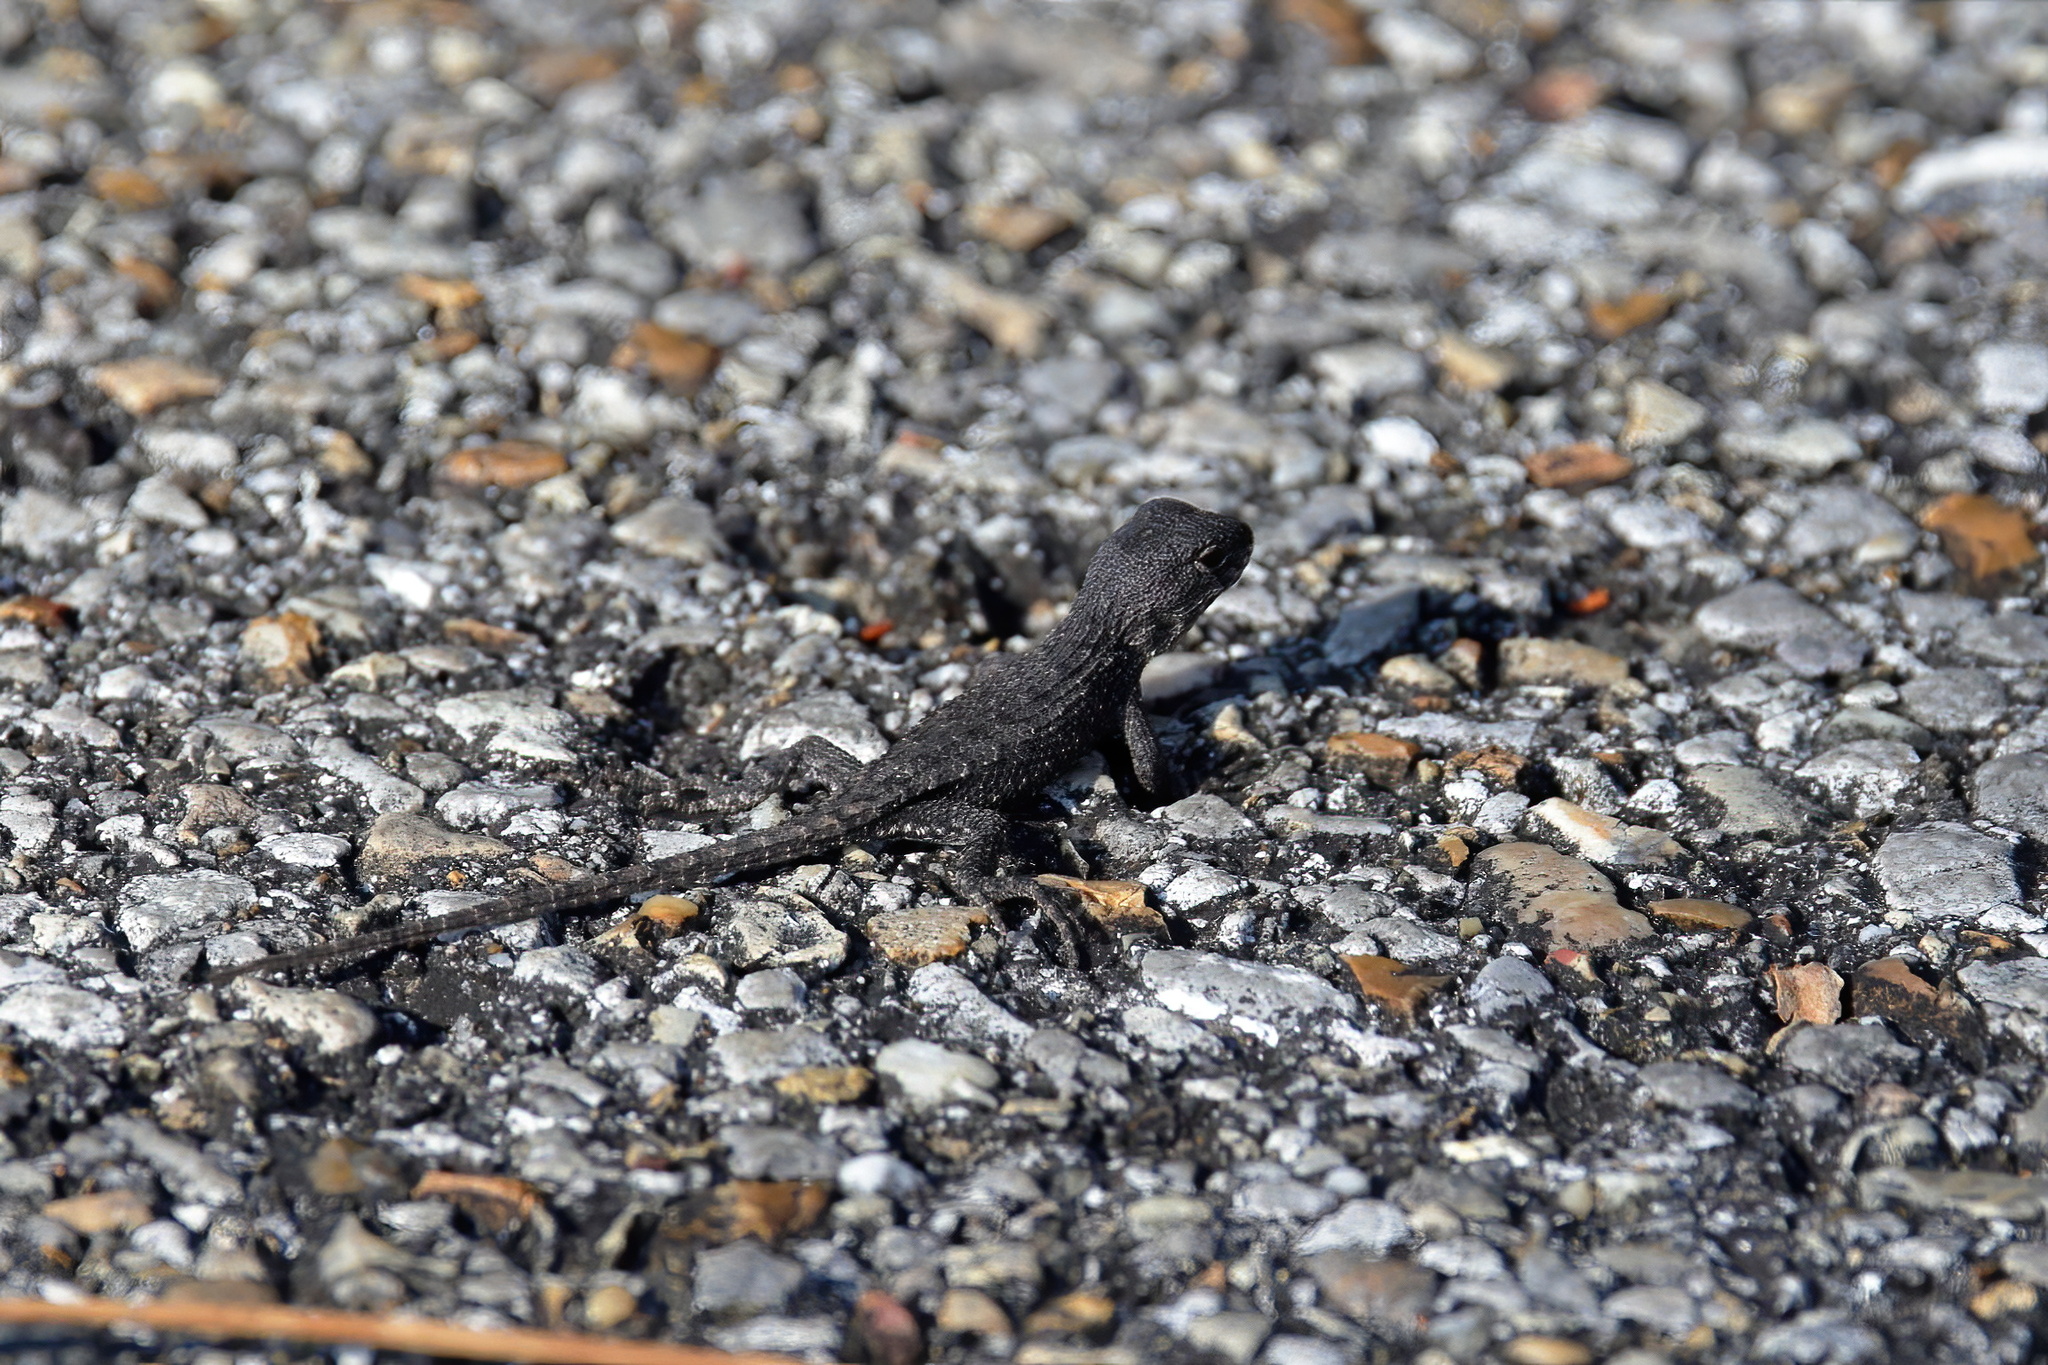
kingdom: Animalia
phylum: Chordata
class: Squamata
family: Phrynosomatidae
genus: Sceloporus
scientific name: Sceloporus undulatus
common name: Eastern fence lizard
